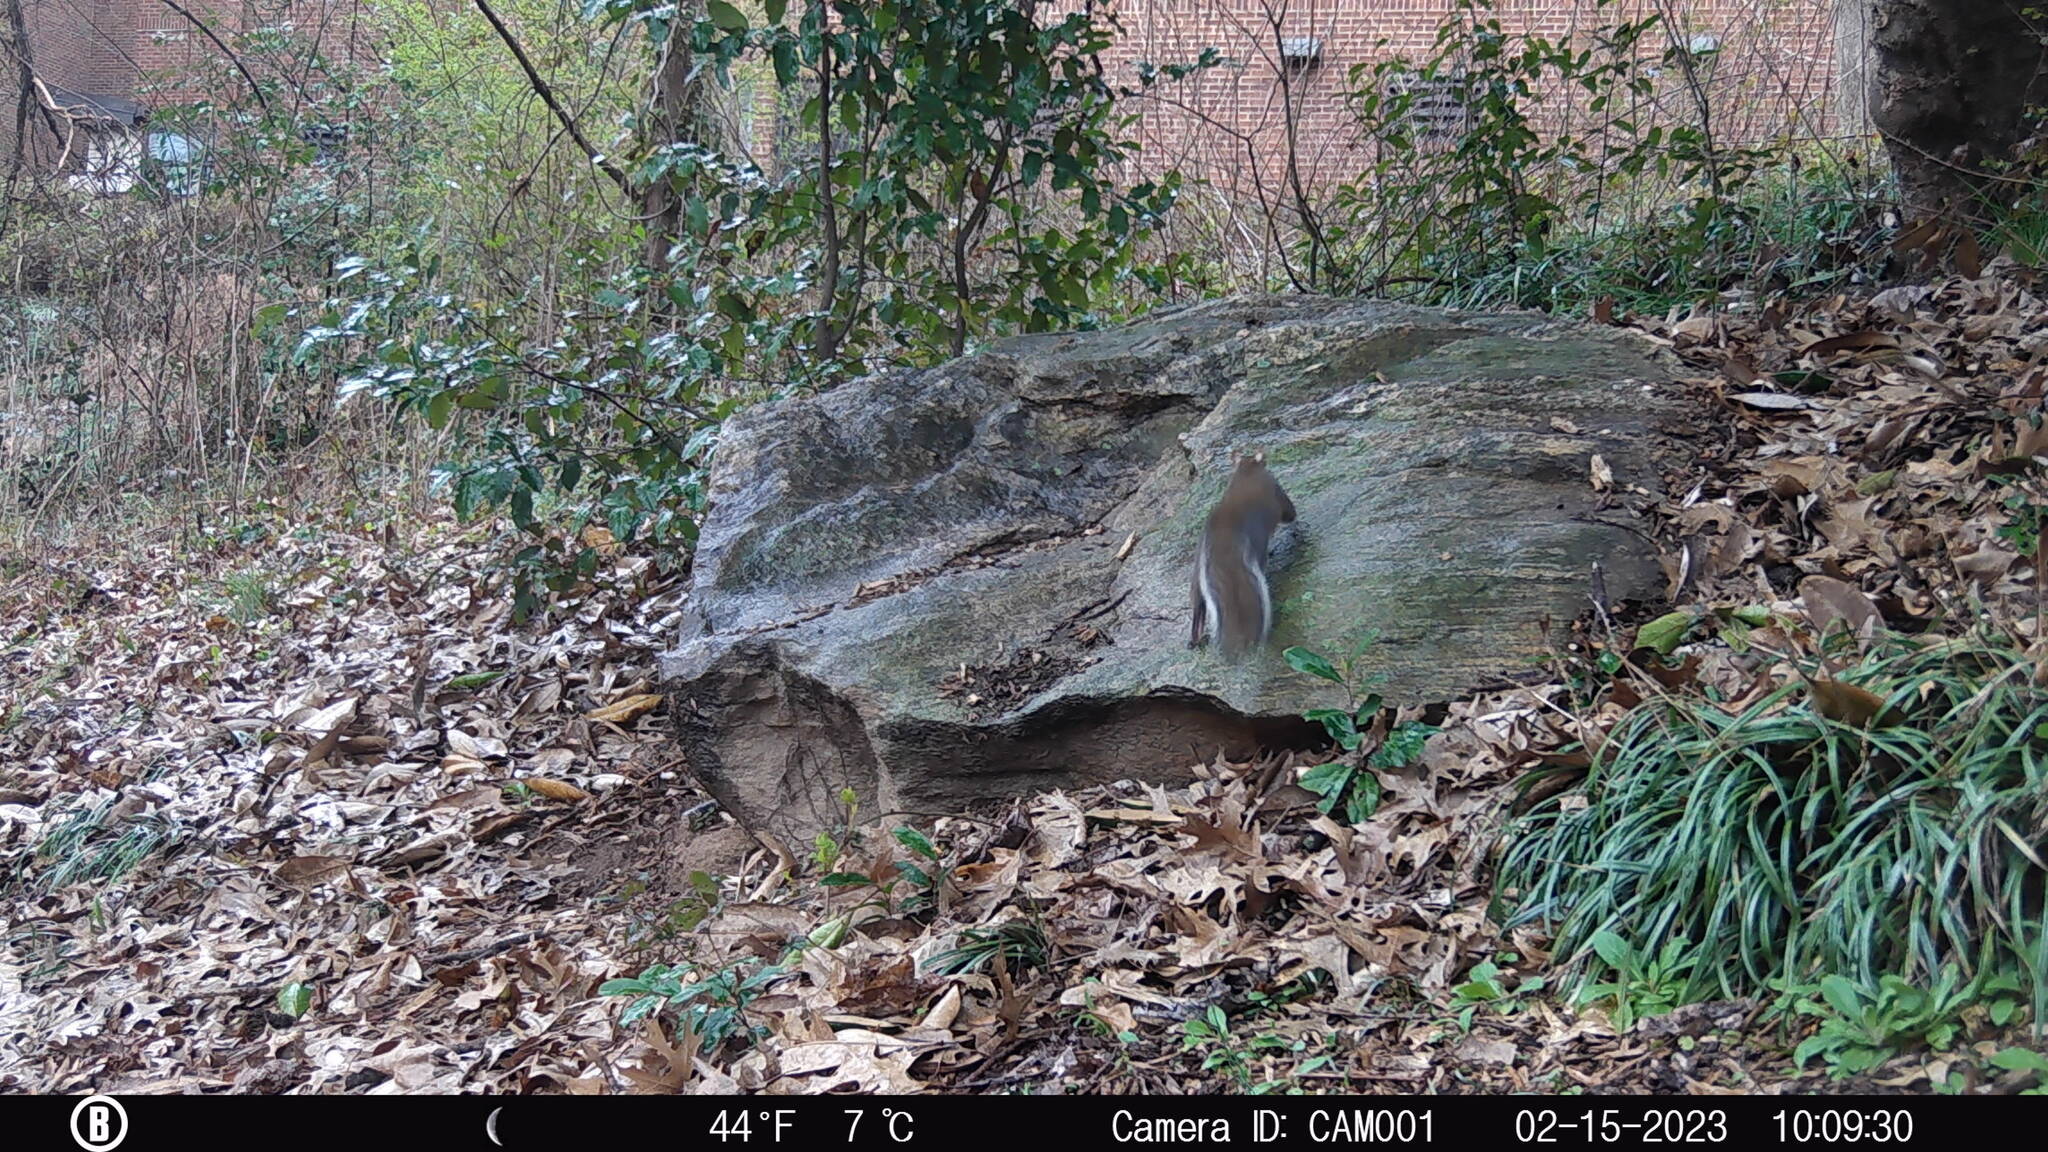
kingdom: Animalia
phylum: Chordata
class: Mammalia
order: Rodentia
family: Sciuridae
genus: Sciurus
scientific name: Sciurus carolinensis
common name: Eastern gray squirrel
